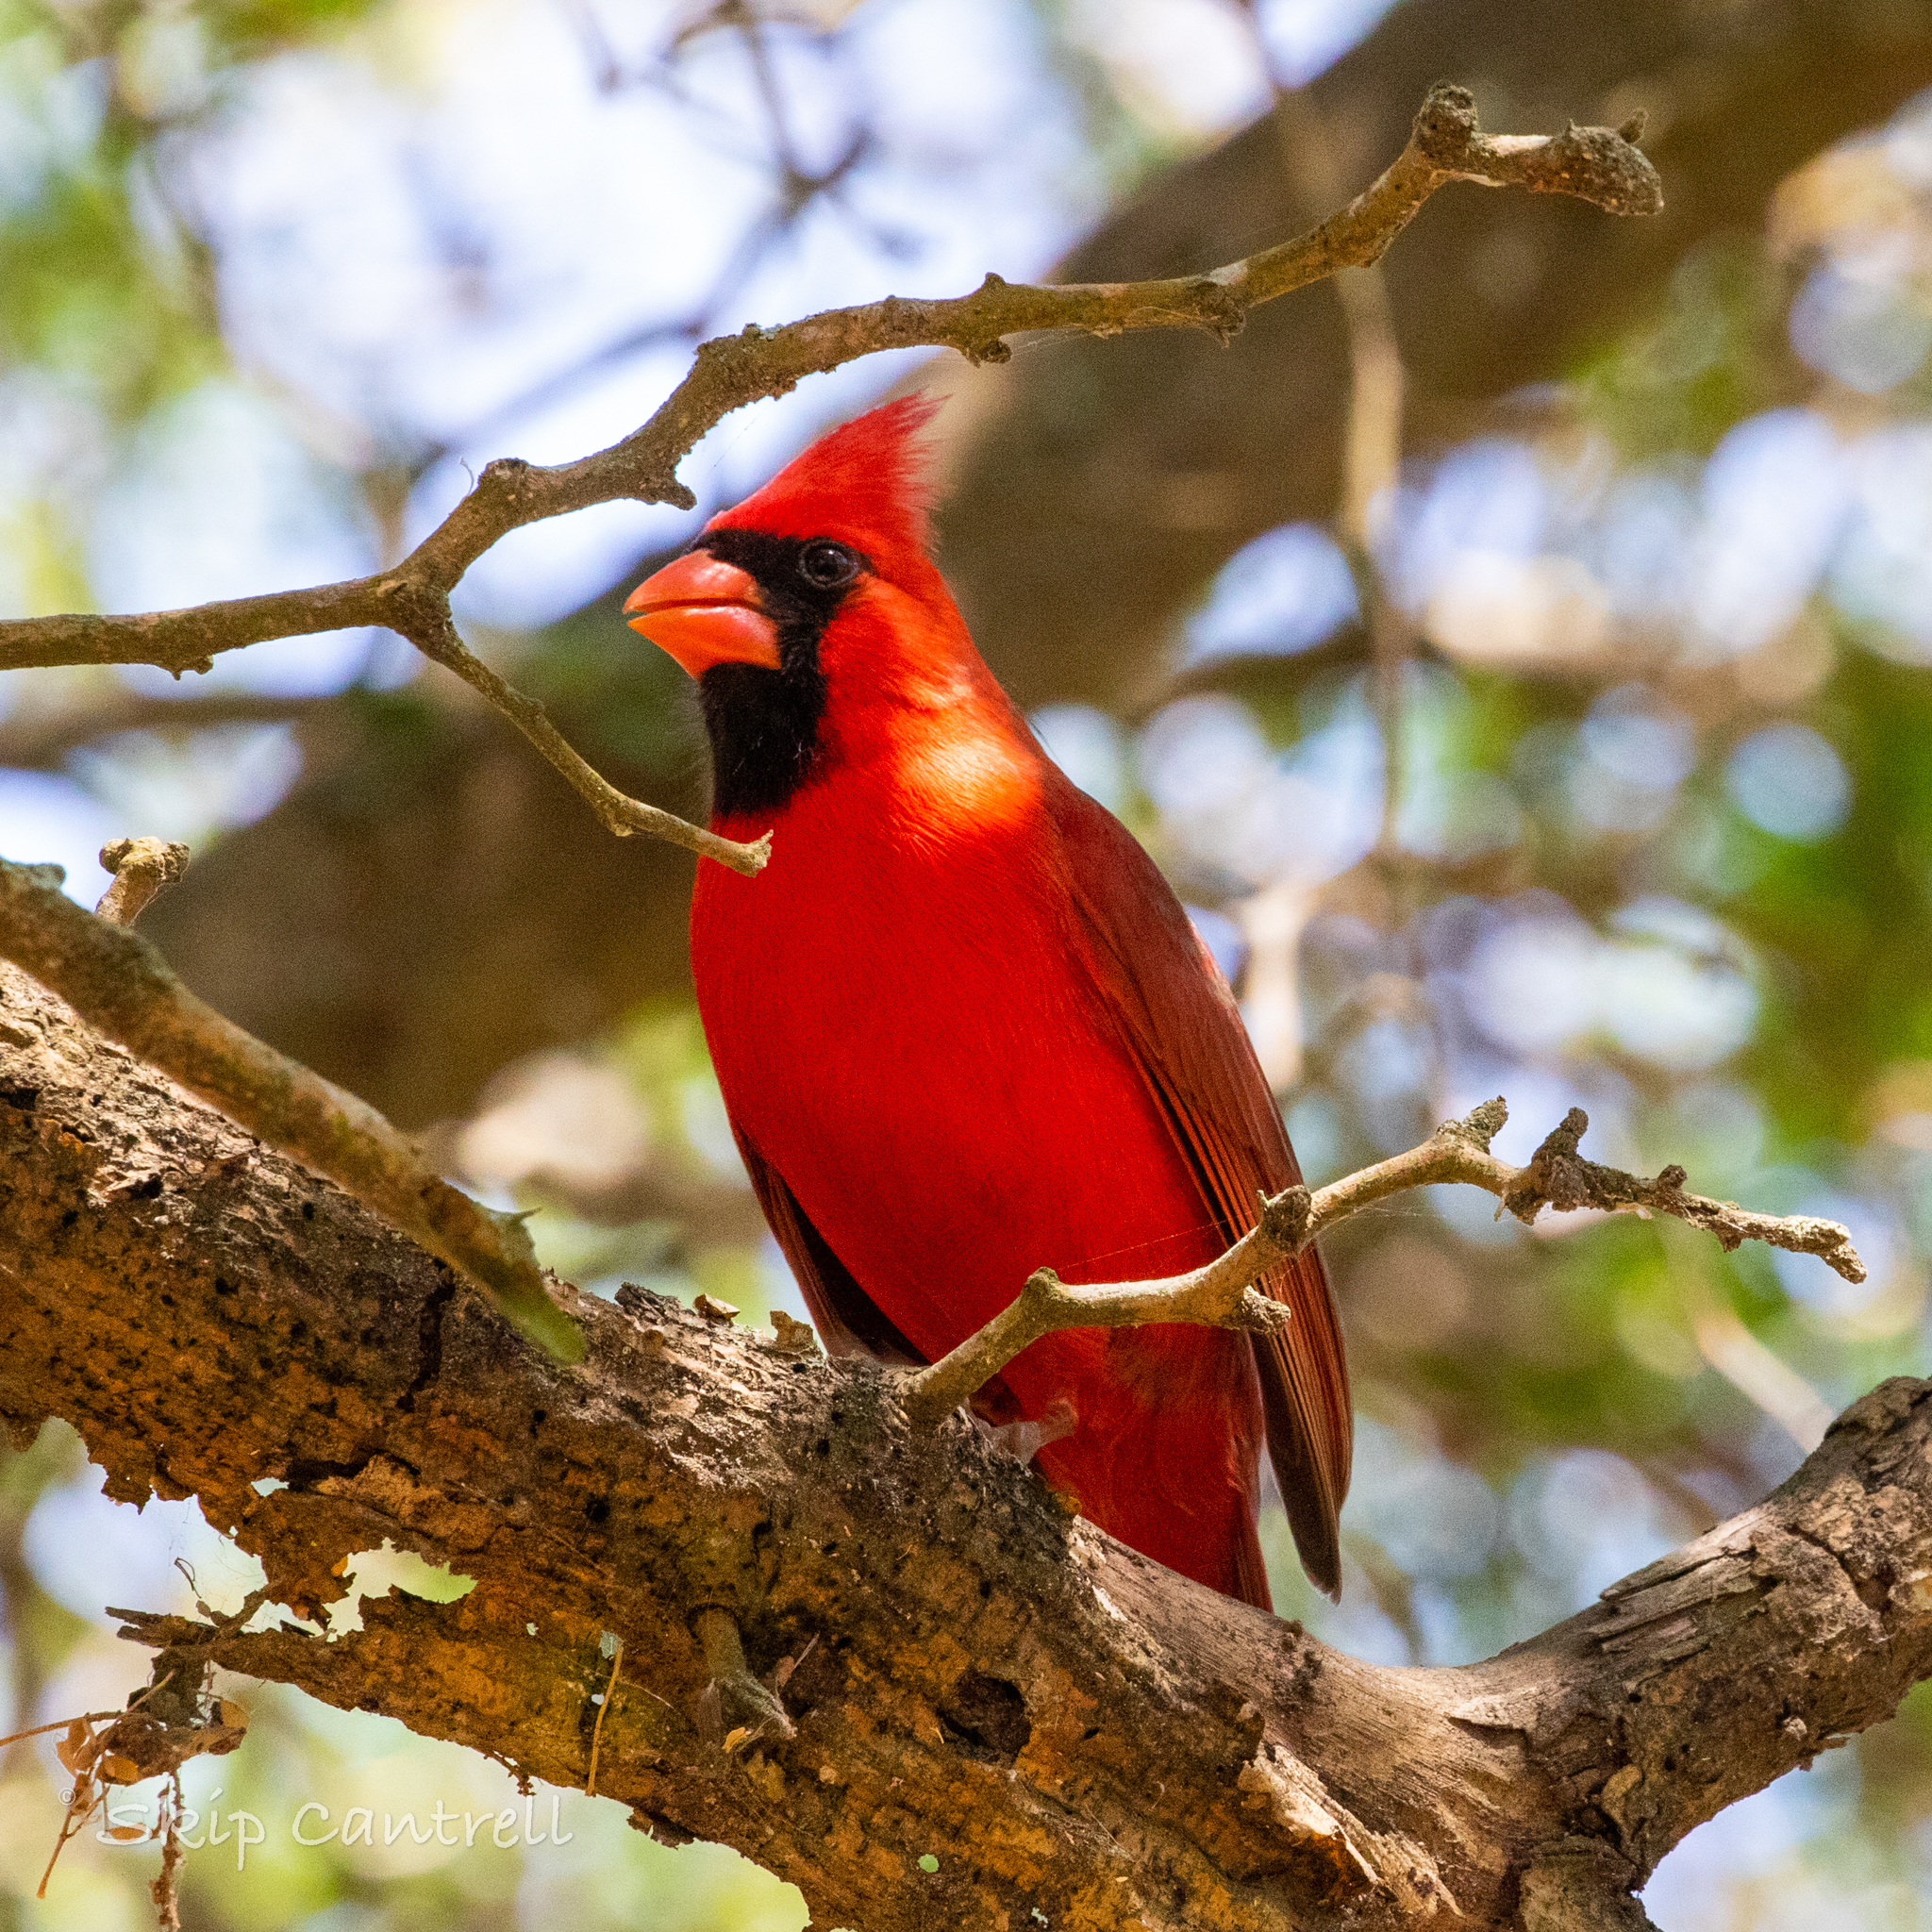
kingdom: Animalia
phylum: Chordata
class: Aves
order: Passeriformes
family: Cardinalidae
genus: Cardinalis
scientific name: Cardinalis cardinalis
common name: Northern cardinal
